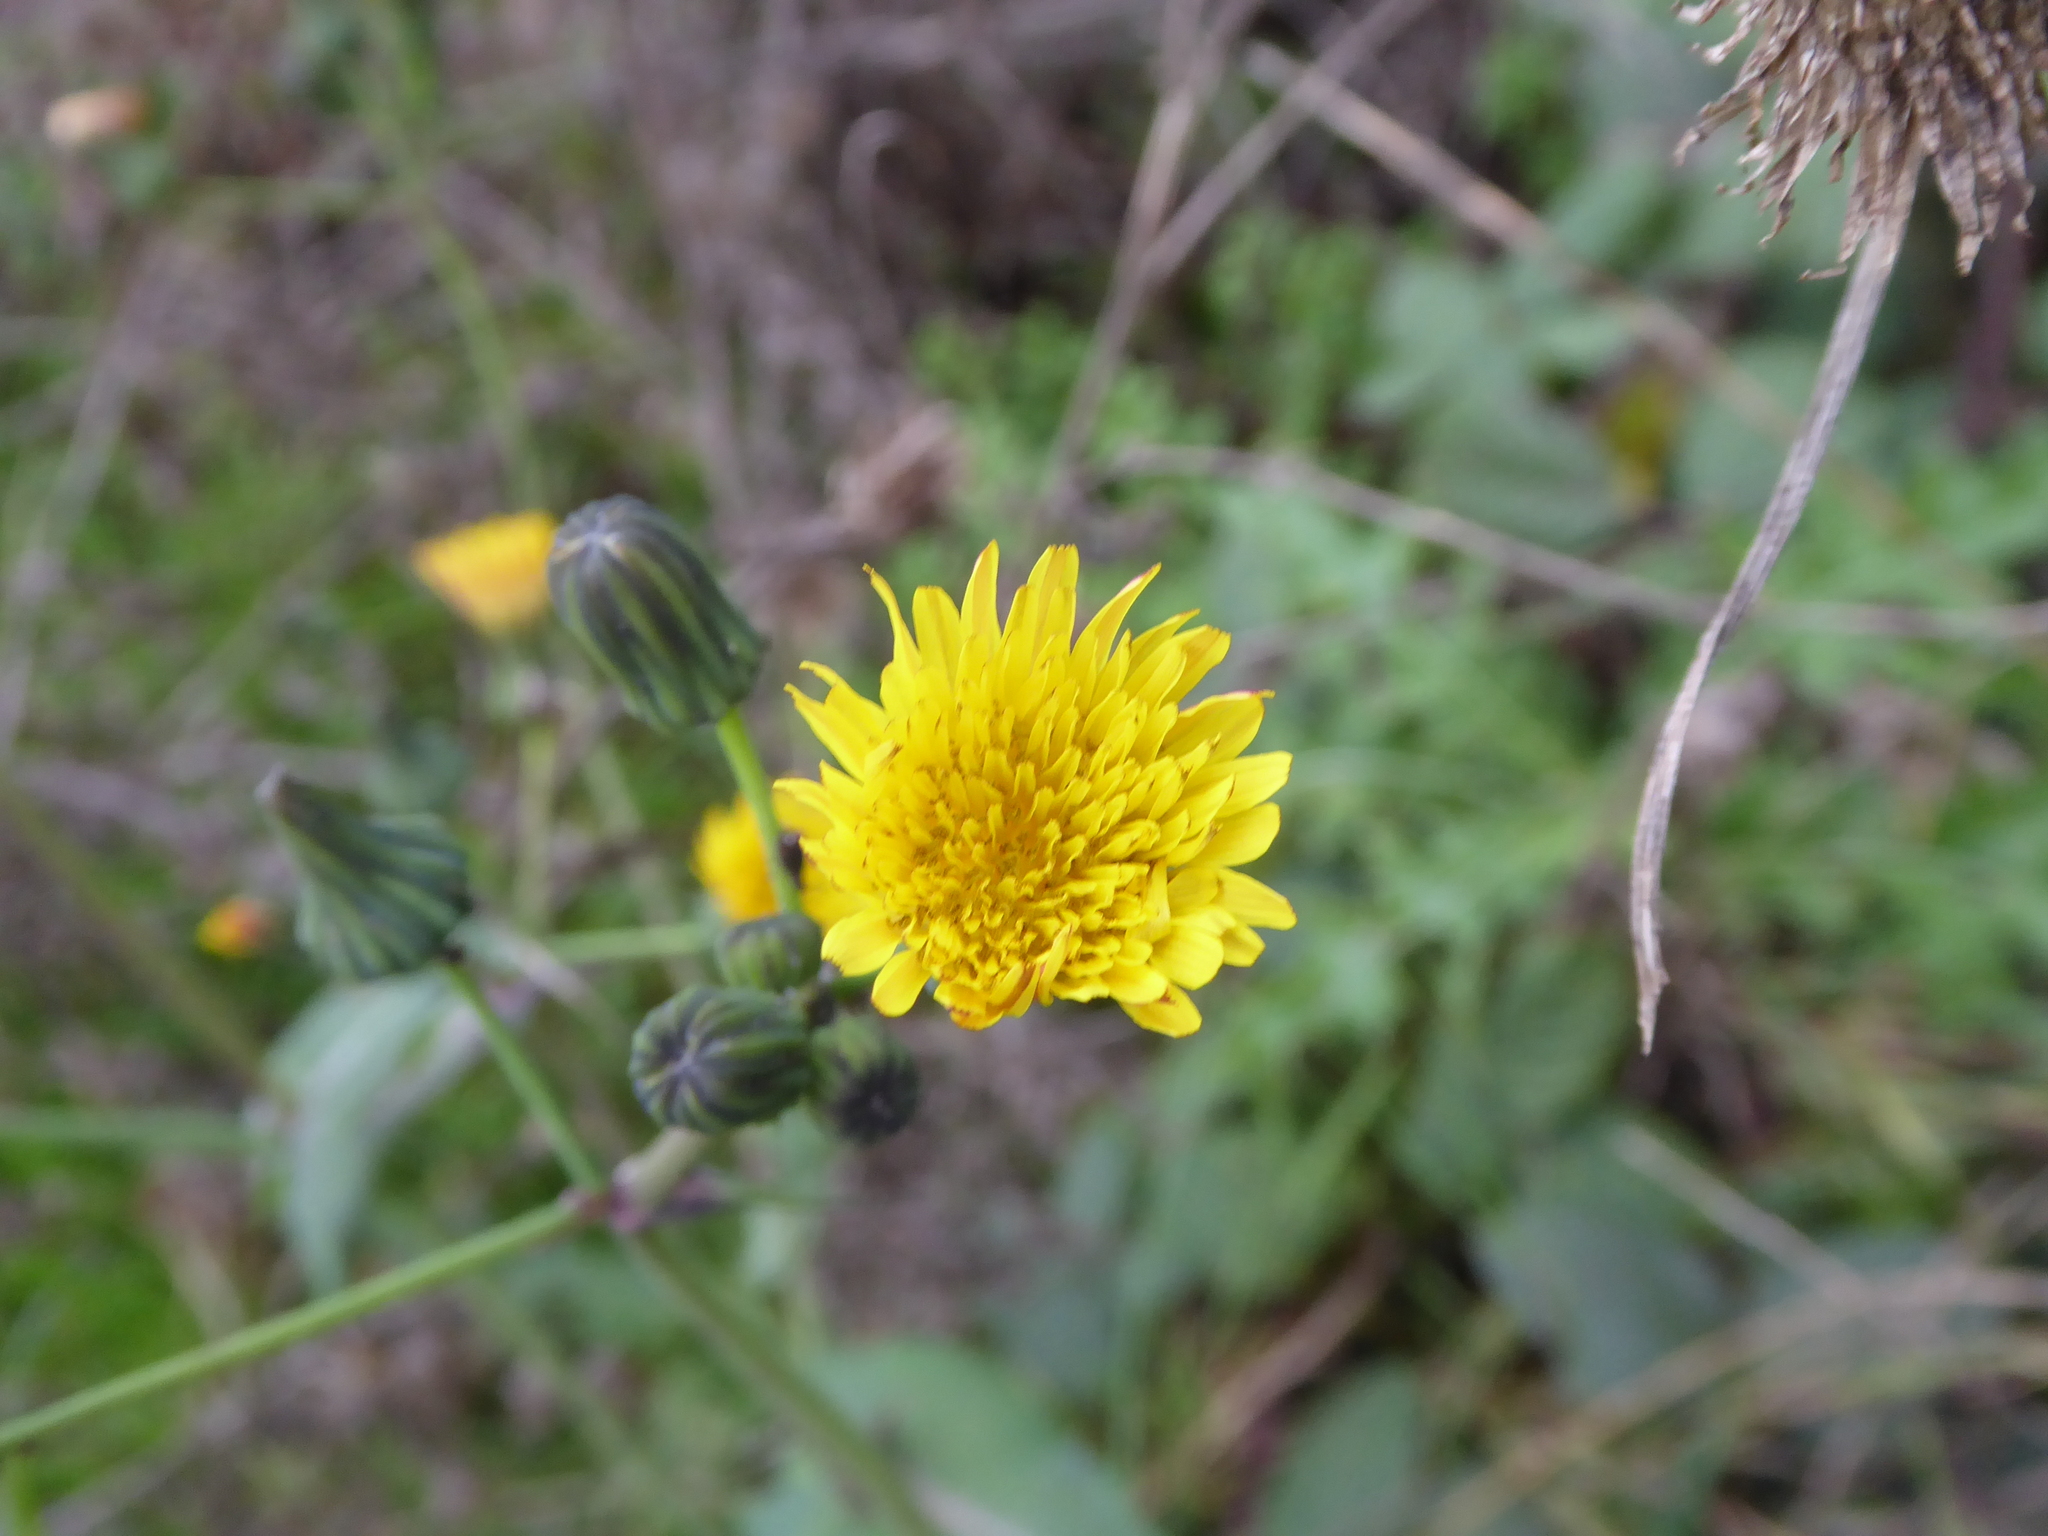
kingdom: Plantae
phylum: Tracheophyta
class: Magnoliopsida
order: Asterales
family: Asteraceae
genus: Sonchus
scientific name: Sonchus oleraceus
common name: Common sowthistle
